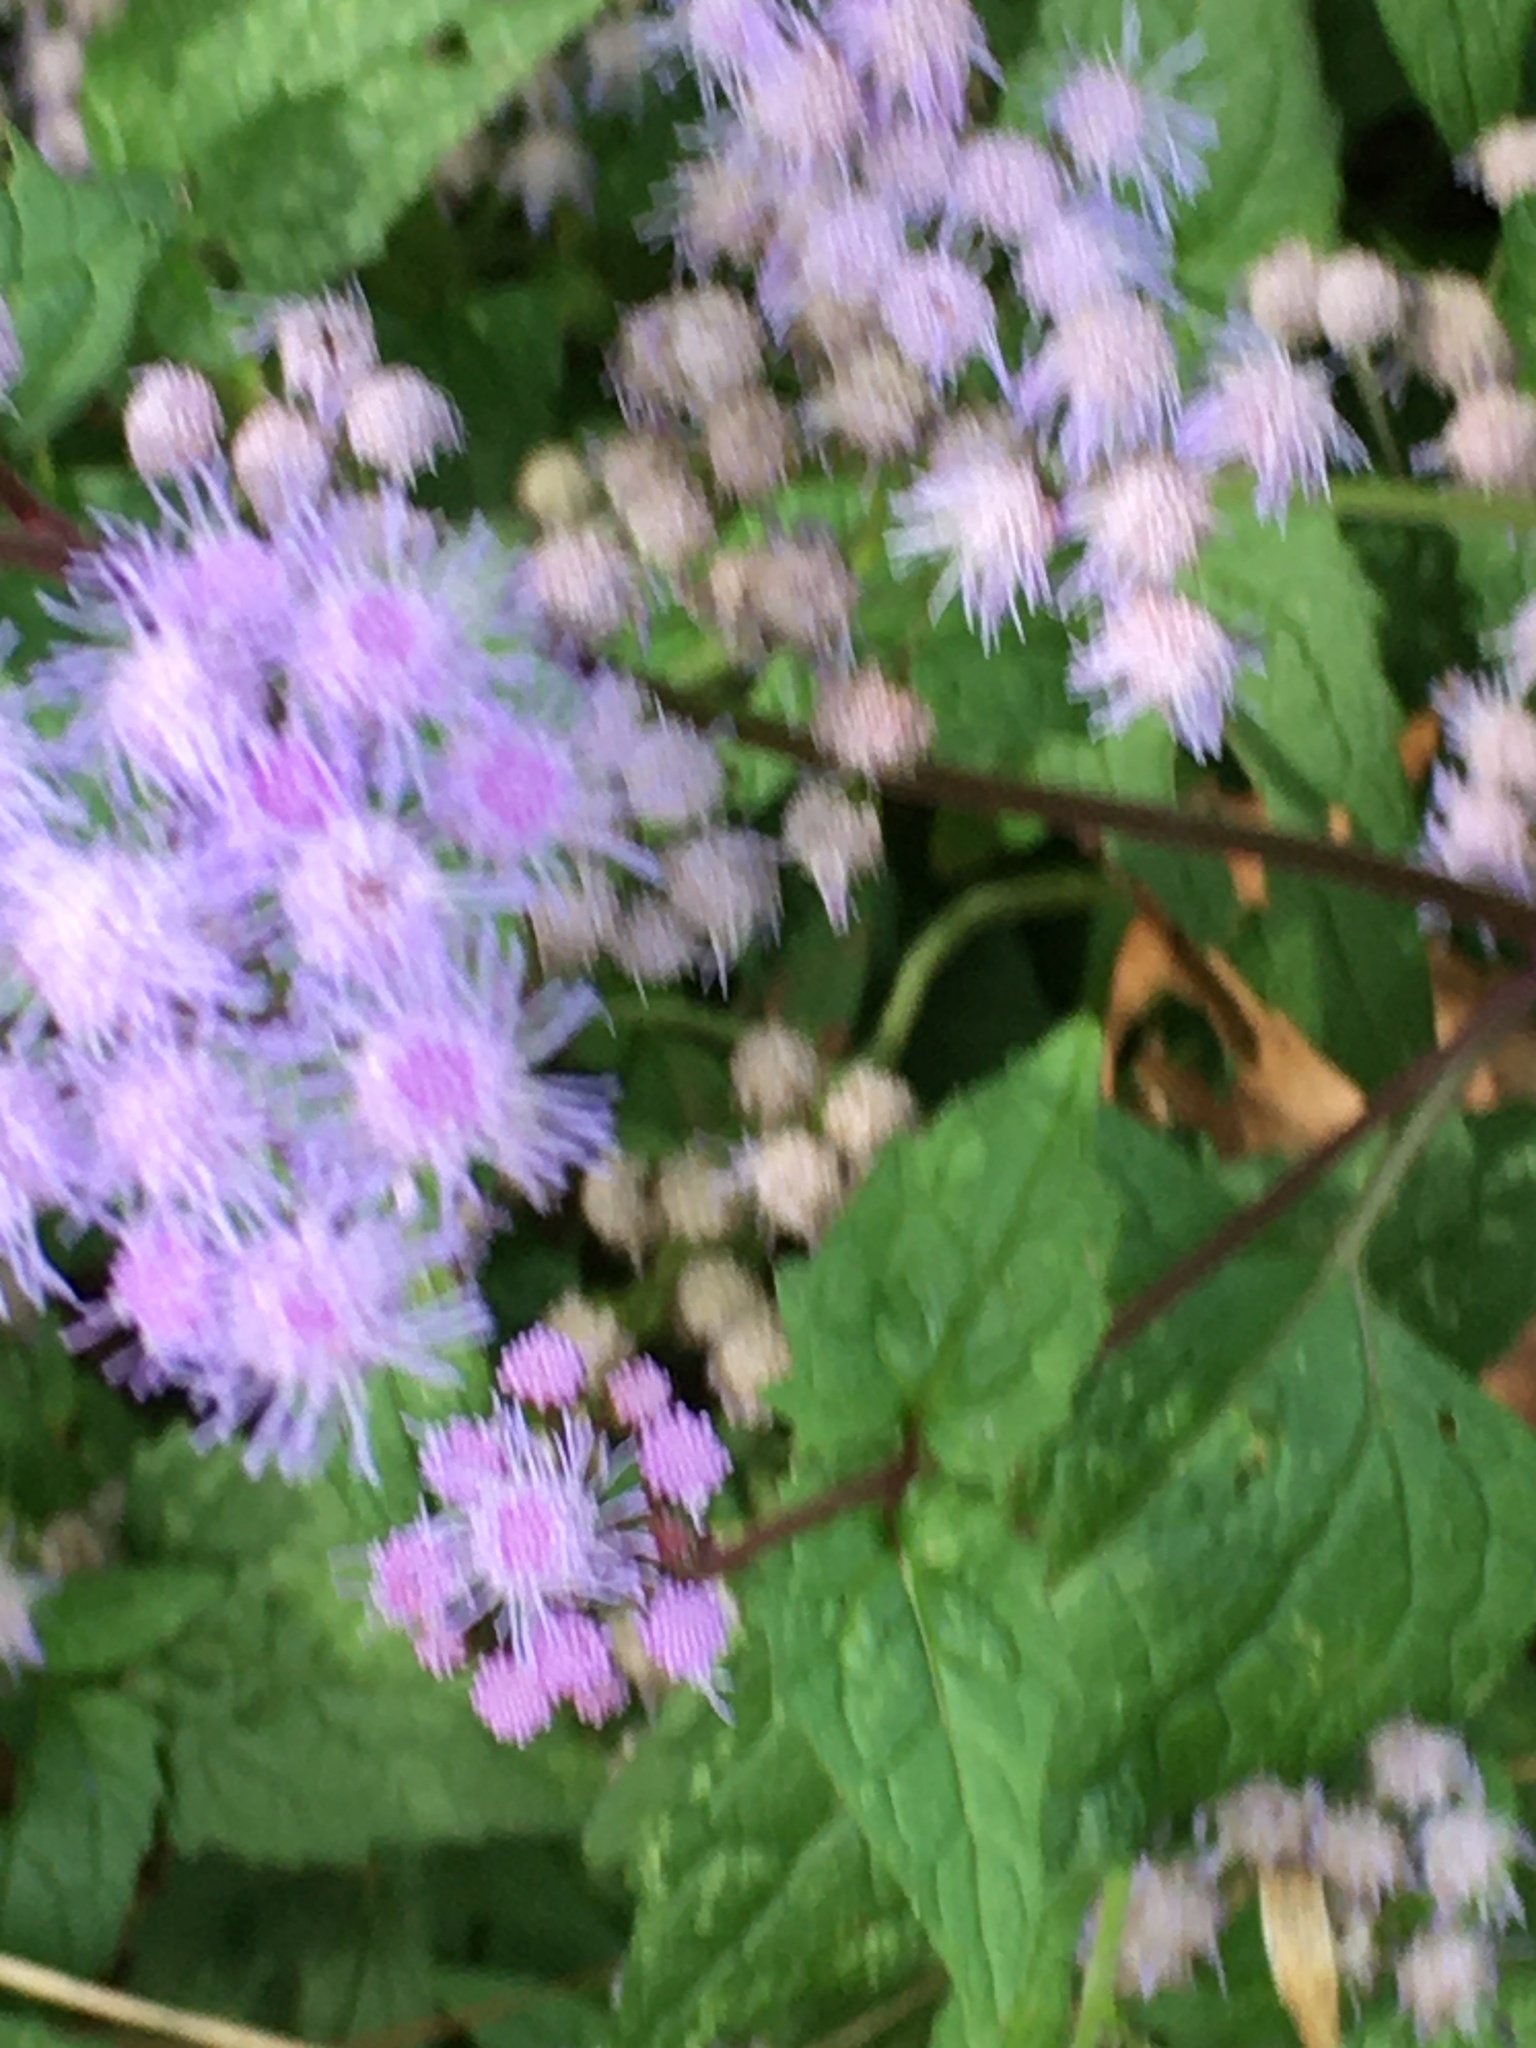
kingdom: Plantae
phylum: Tracheophyta
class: Magnoliopsida
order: Asterales
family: Asteraceae
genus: Conoclinium
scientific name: Conoclinium coelestinum
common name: Blue mistflower
